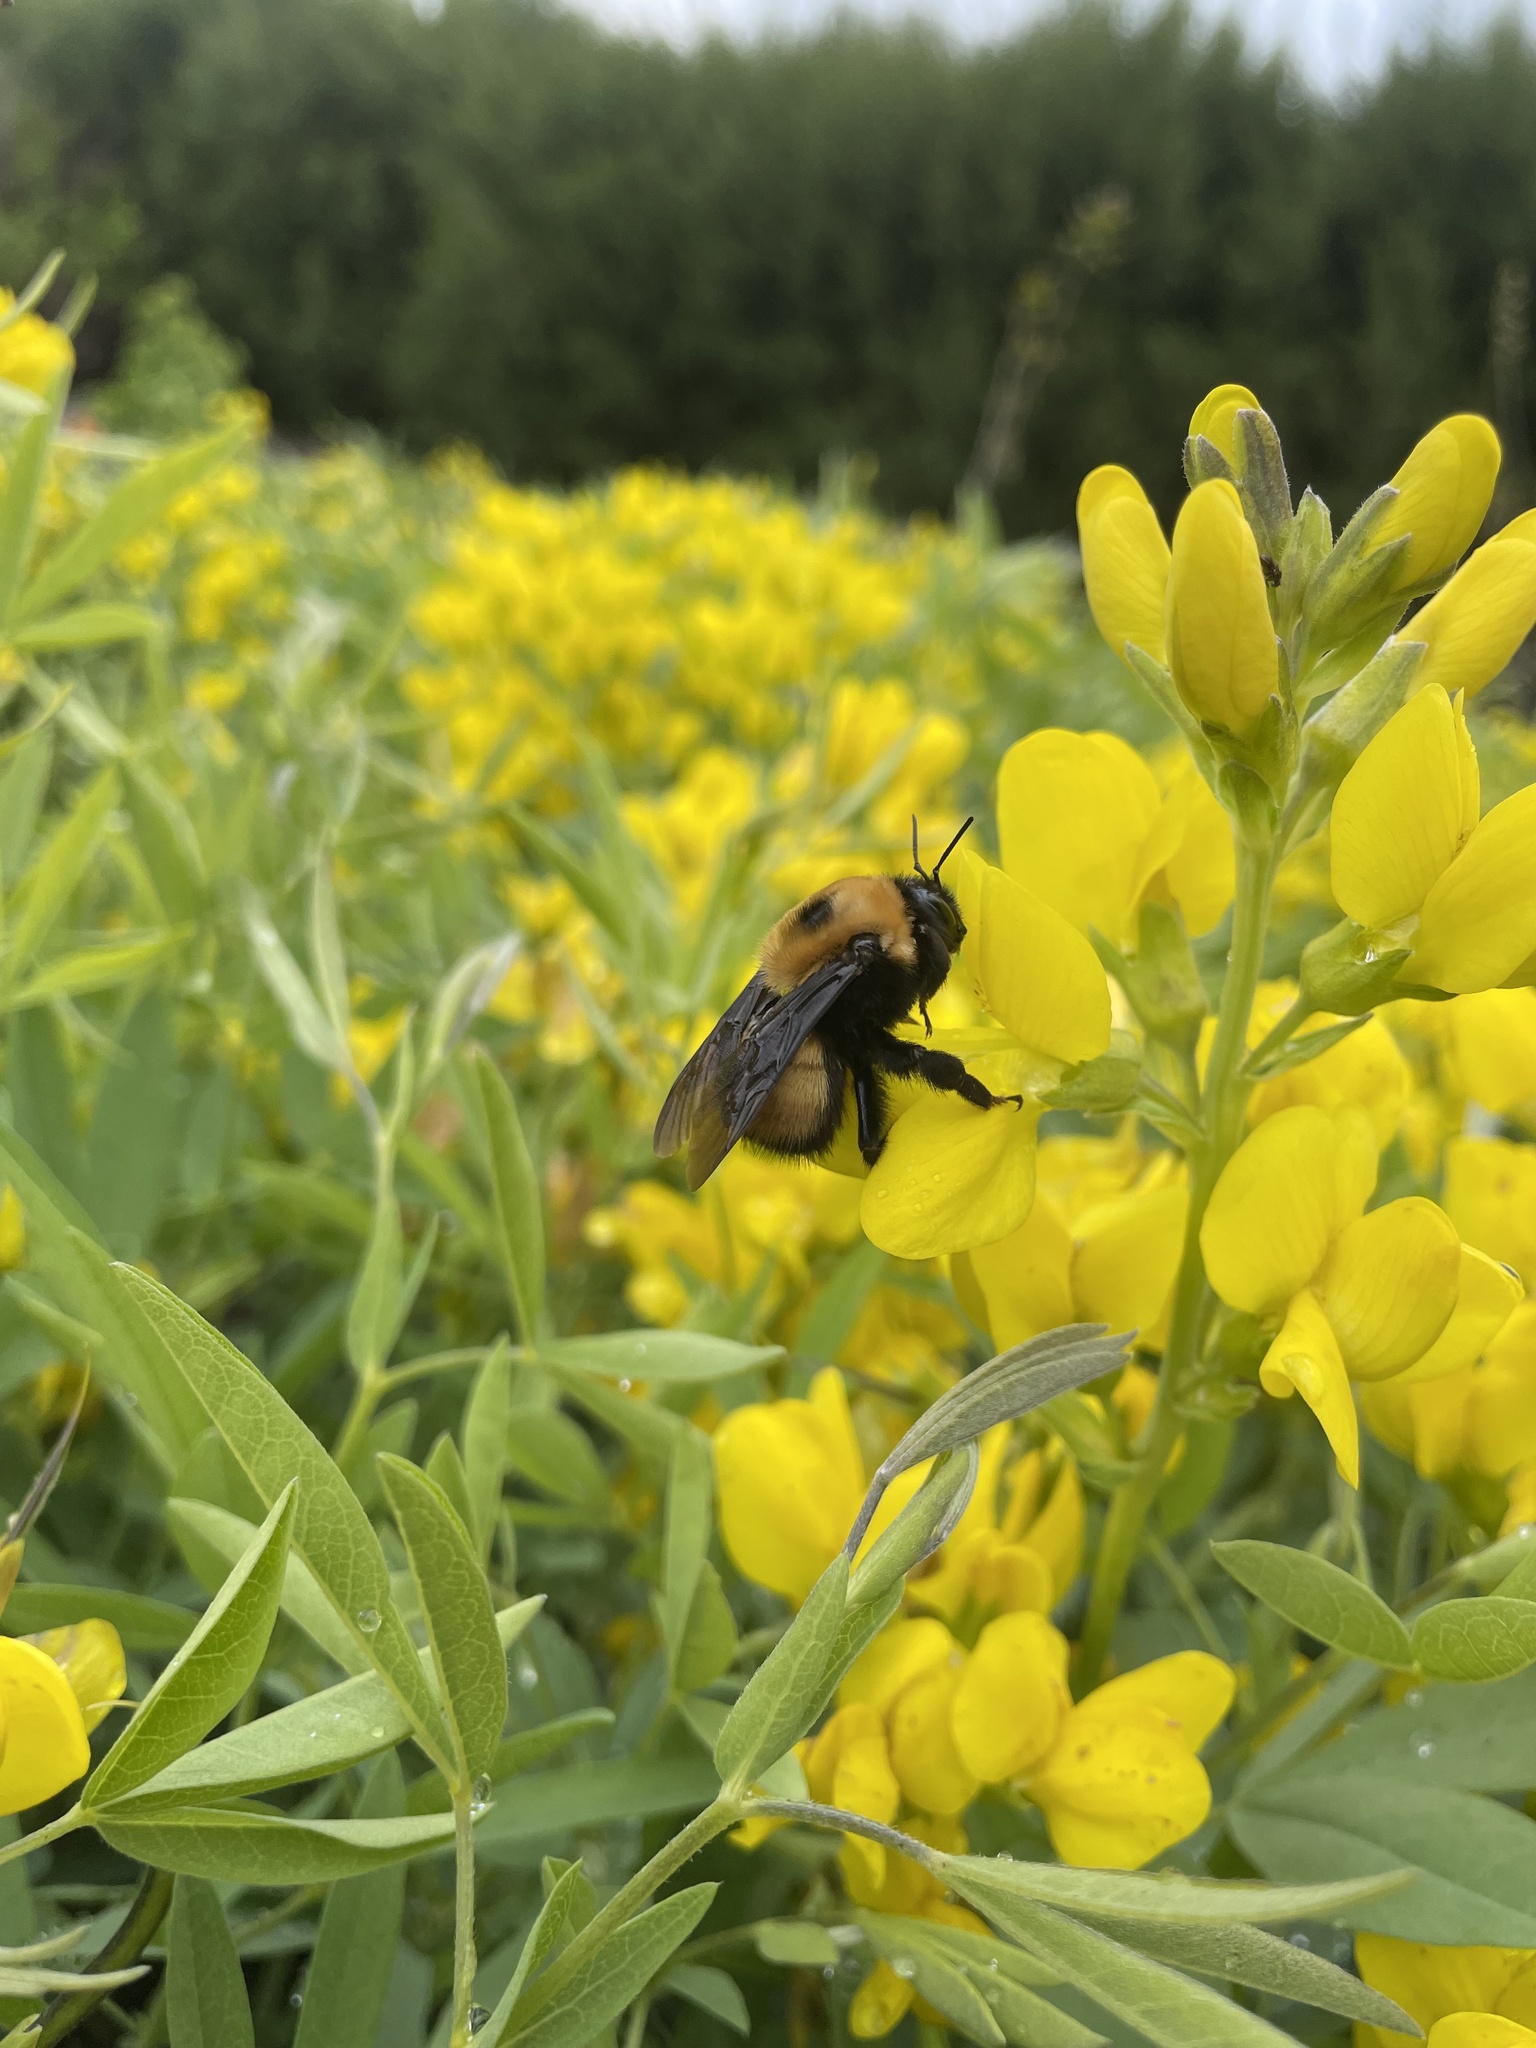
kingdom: Animalia
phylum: Arthropoda
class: Insecta
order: Hymenoptera
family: Apidae
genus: Bombus
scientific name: Bombus nevadensis
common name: Nevada bumble bee
